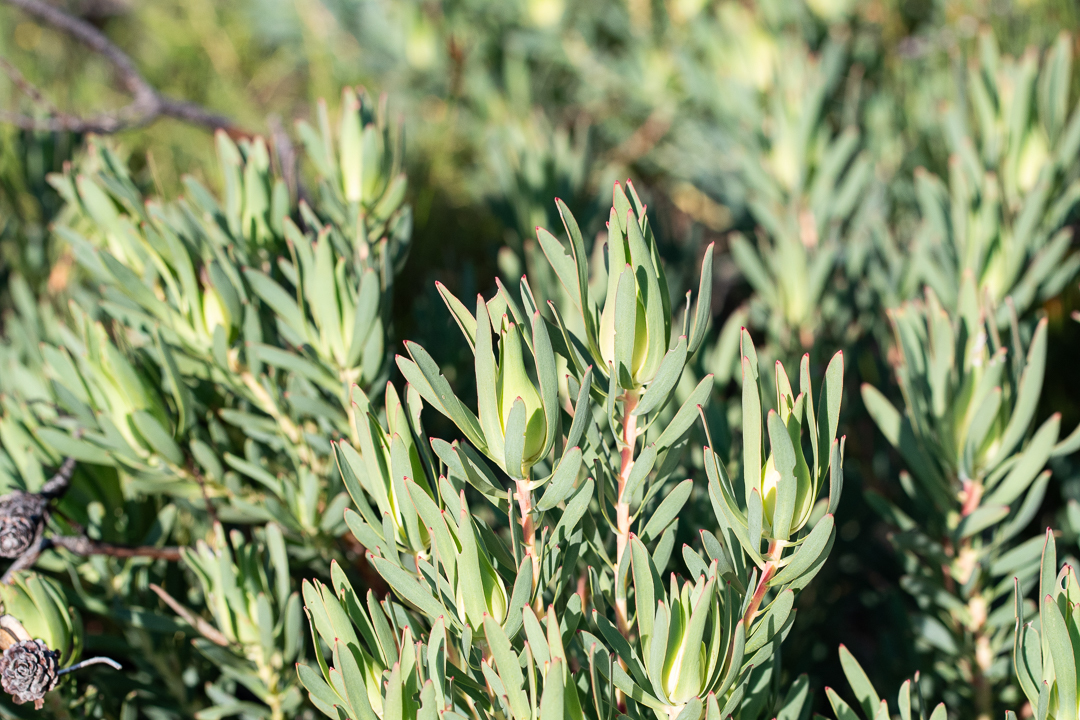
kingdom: Plantae
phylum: Tracheophyta
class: Magnoliopsida
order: Proteales
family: Proteaceae
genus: Leucadendron
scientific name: Leucadendron salignum
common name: Common sunshine conebush
